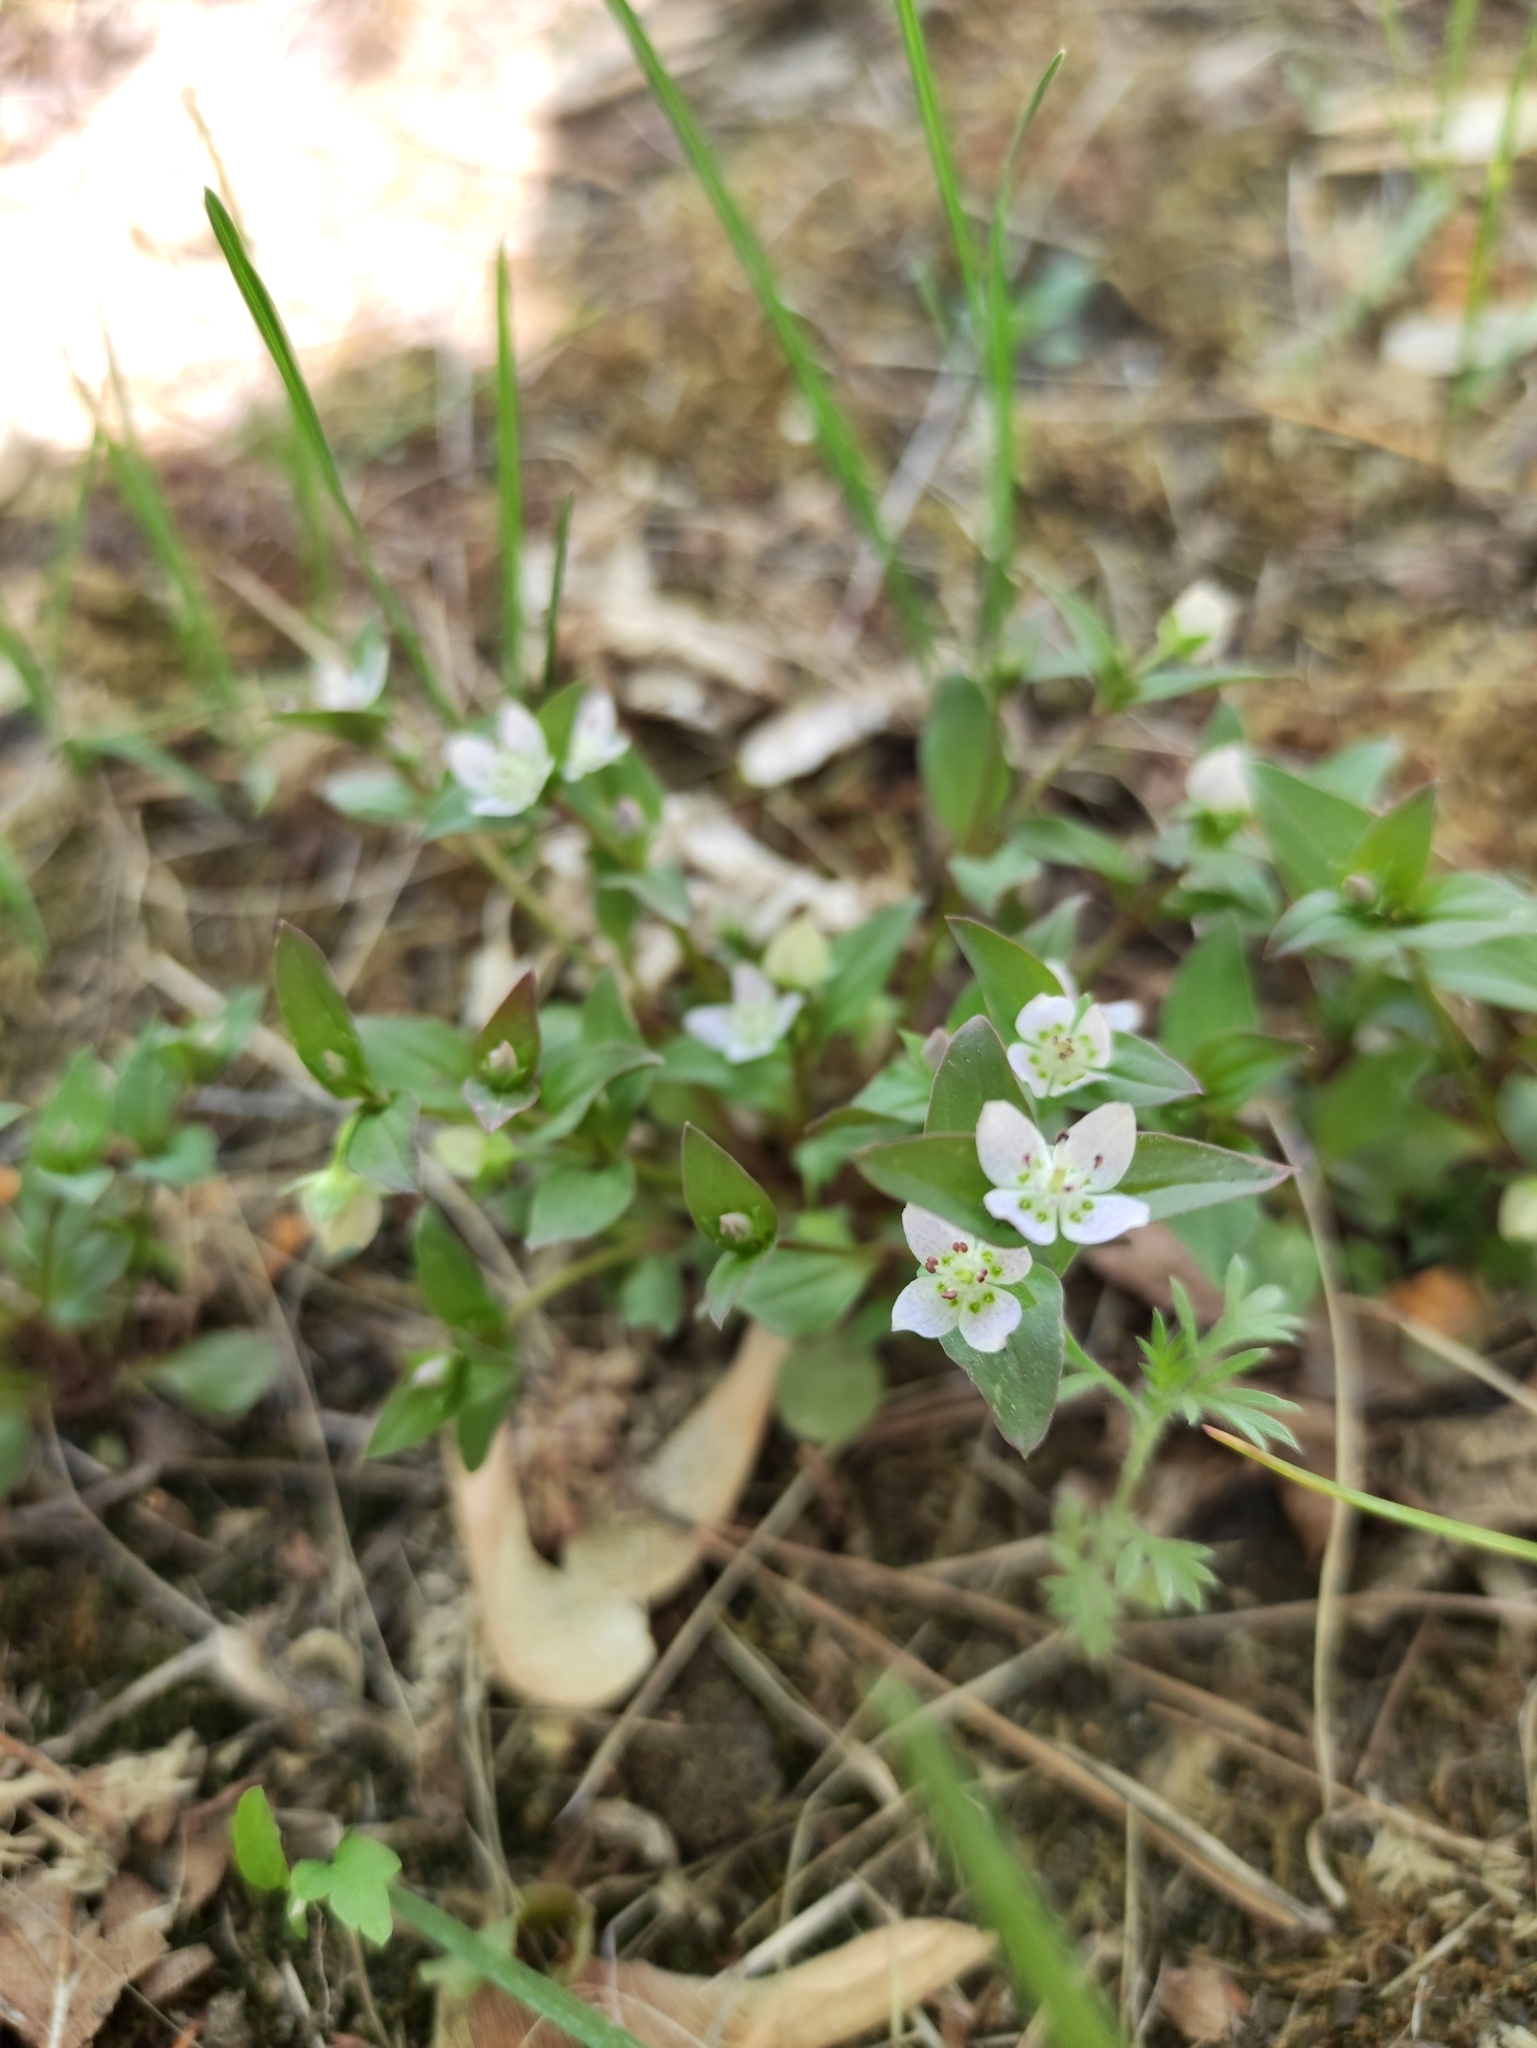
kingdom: Plantae
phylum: Tracheophyta
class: Magnoliopsida
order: Gentianales
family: Gentianaceae
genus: Swertia
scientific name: Swertia dichotoma
